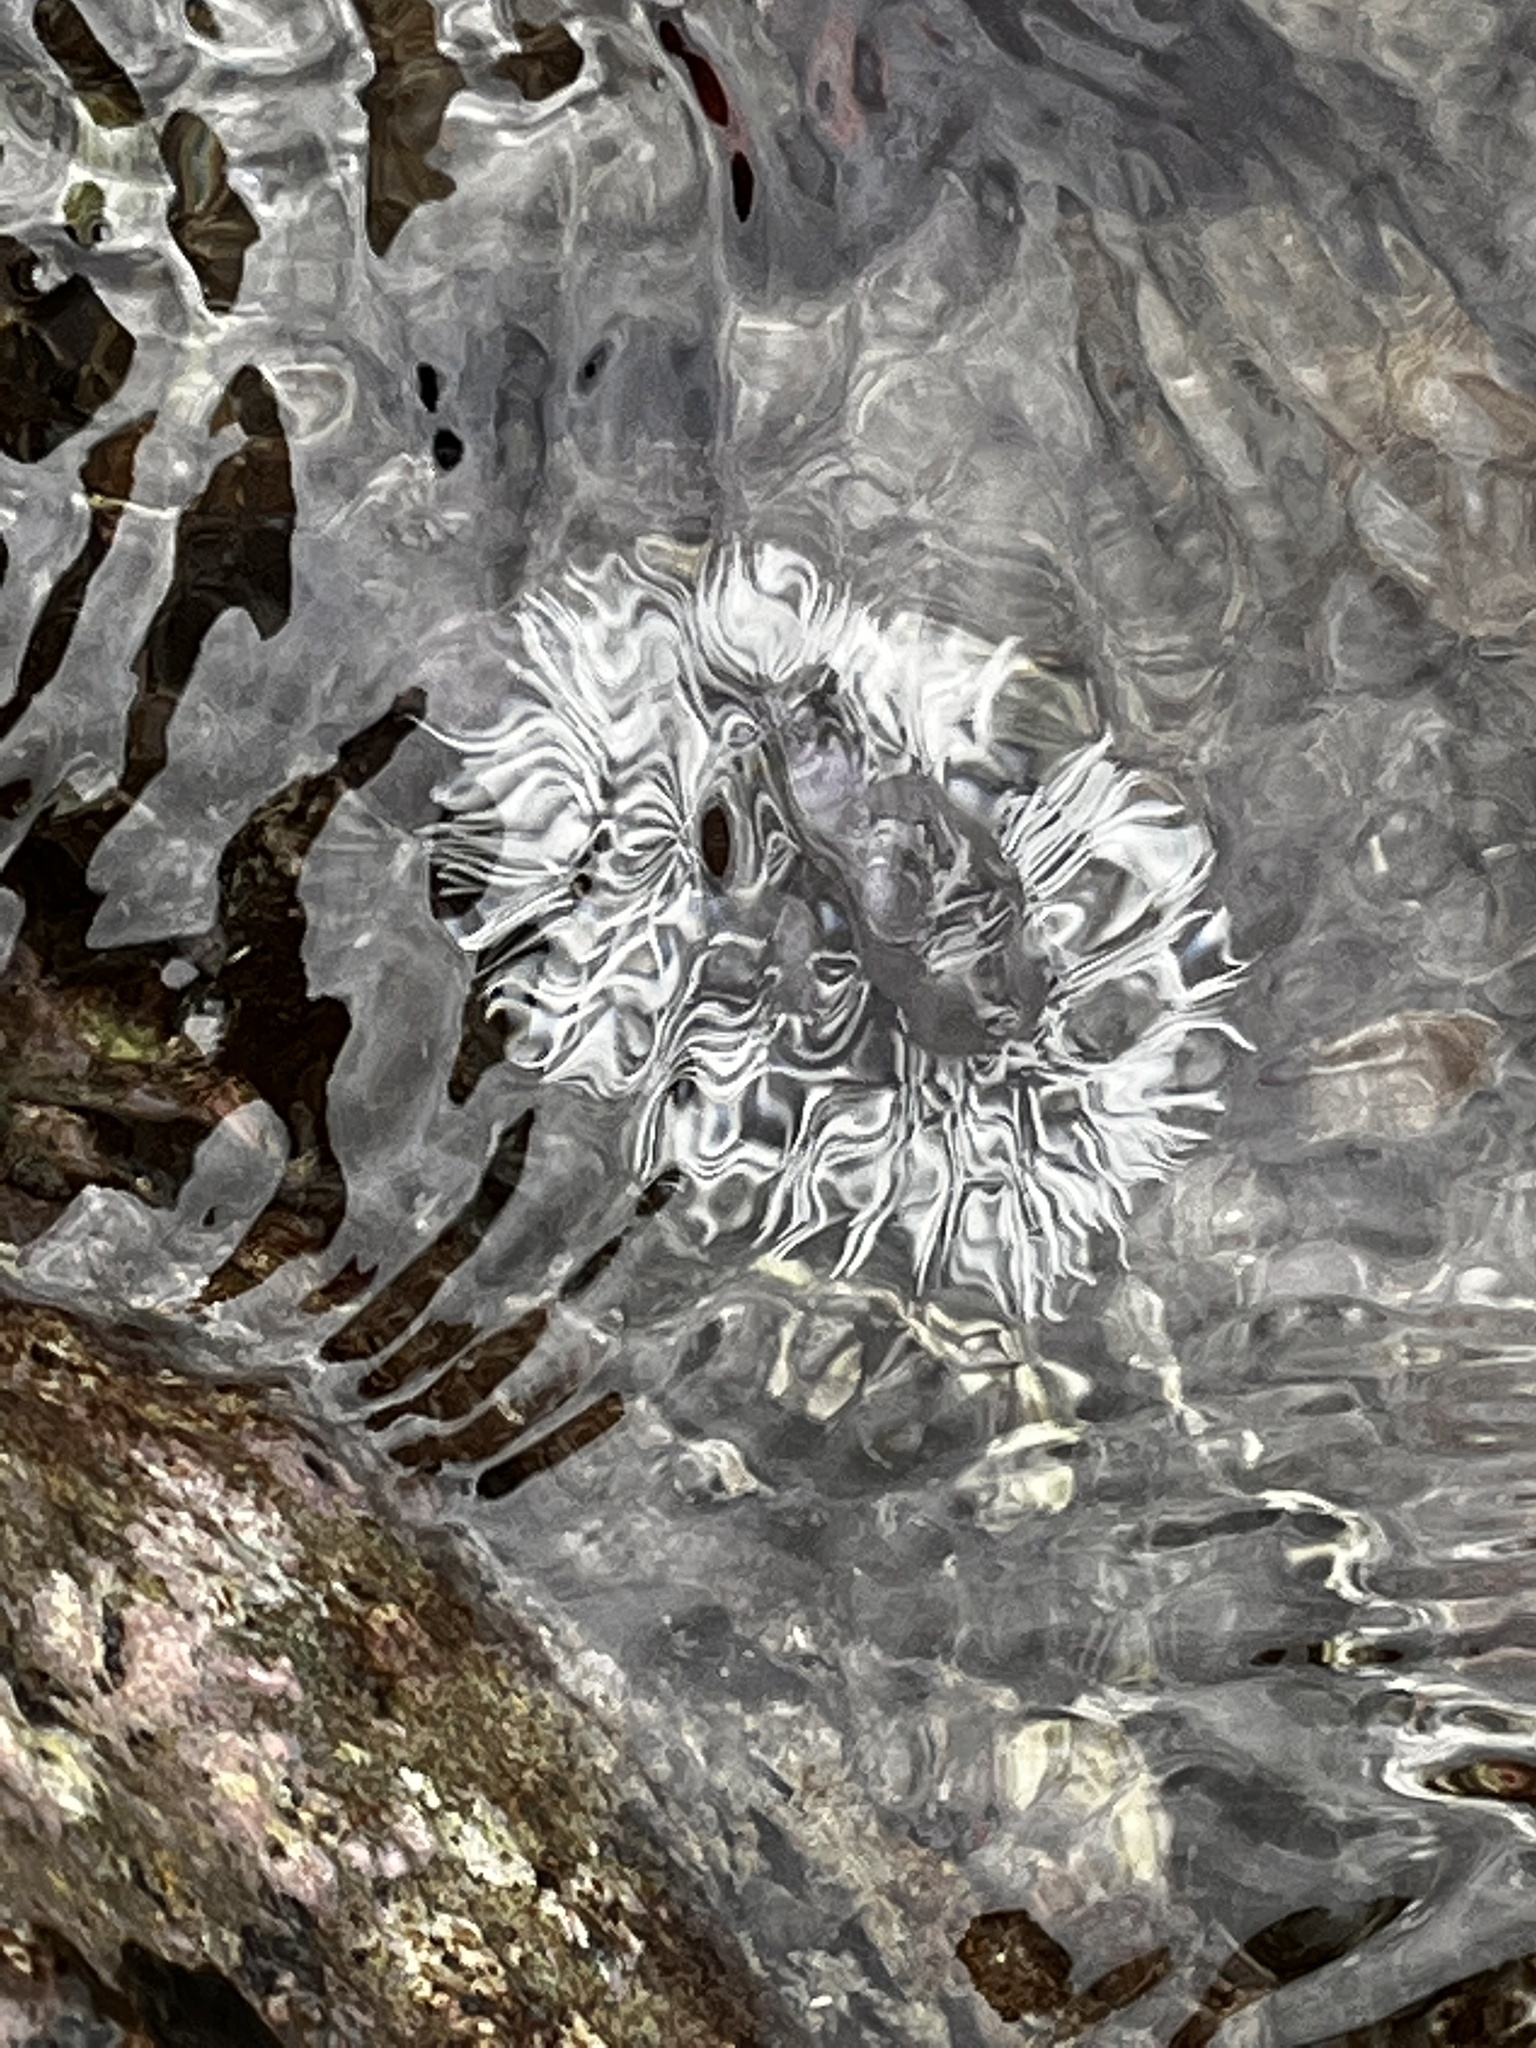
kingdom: Animalia
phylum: Echinodermata
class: Echinoidea
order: Camarodonta
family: Toxopneustidae
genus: Tripneustes
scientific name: Tripneustes ventricosus
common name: West indian sea egg
